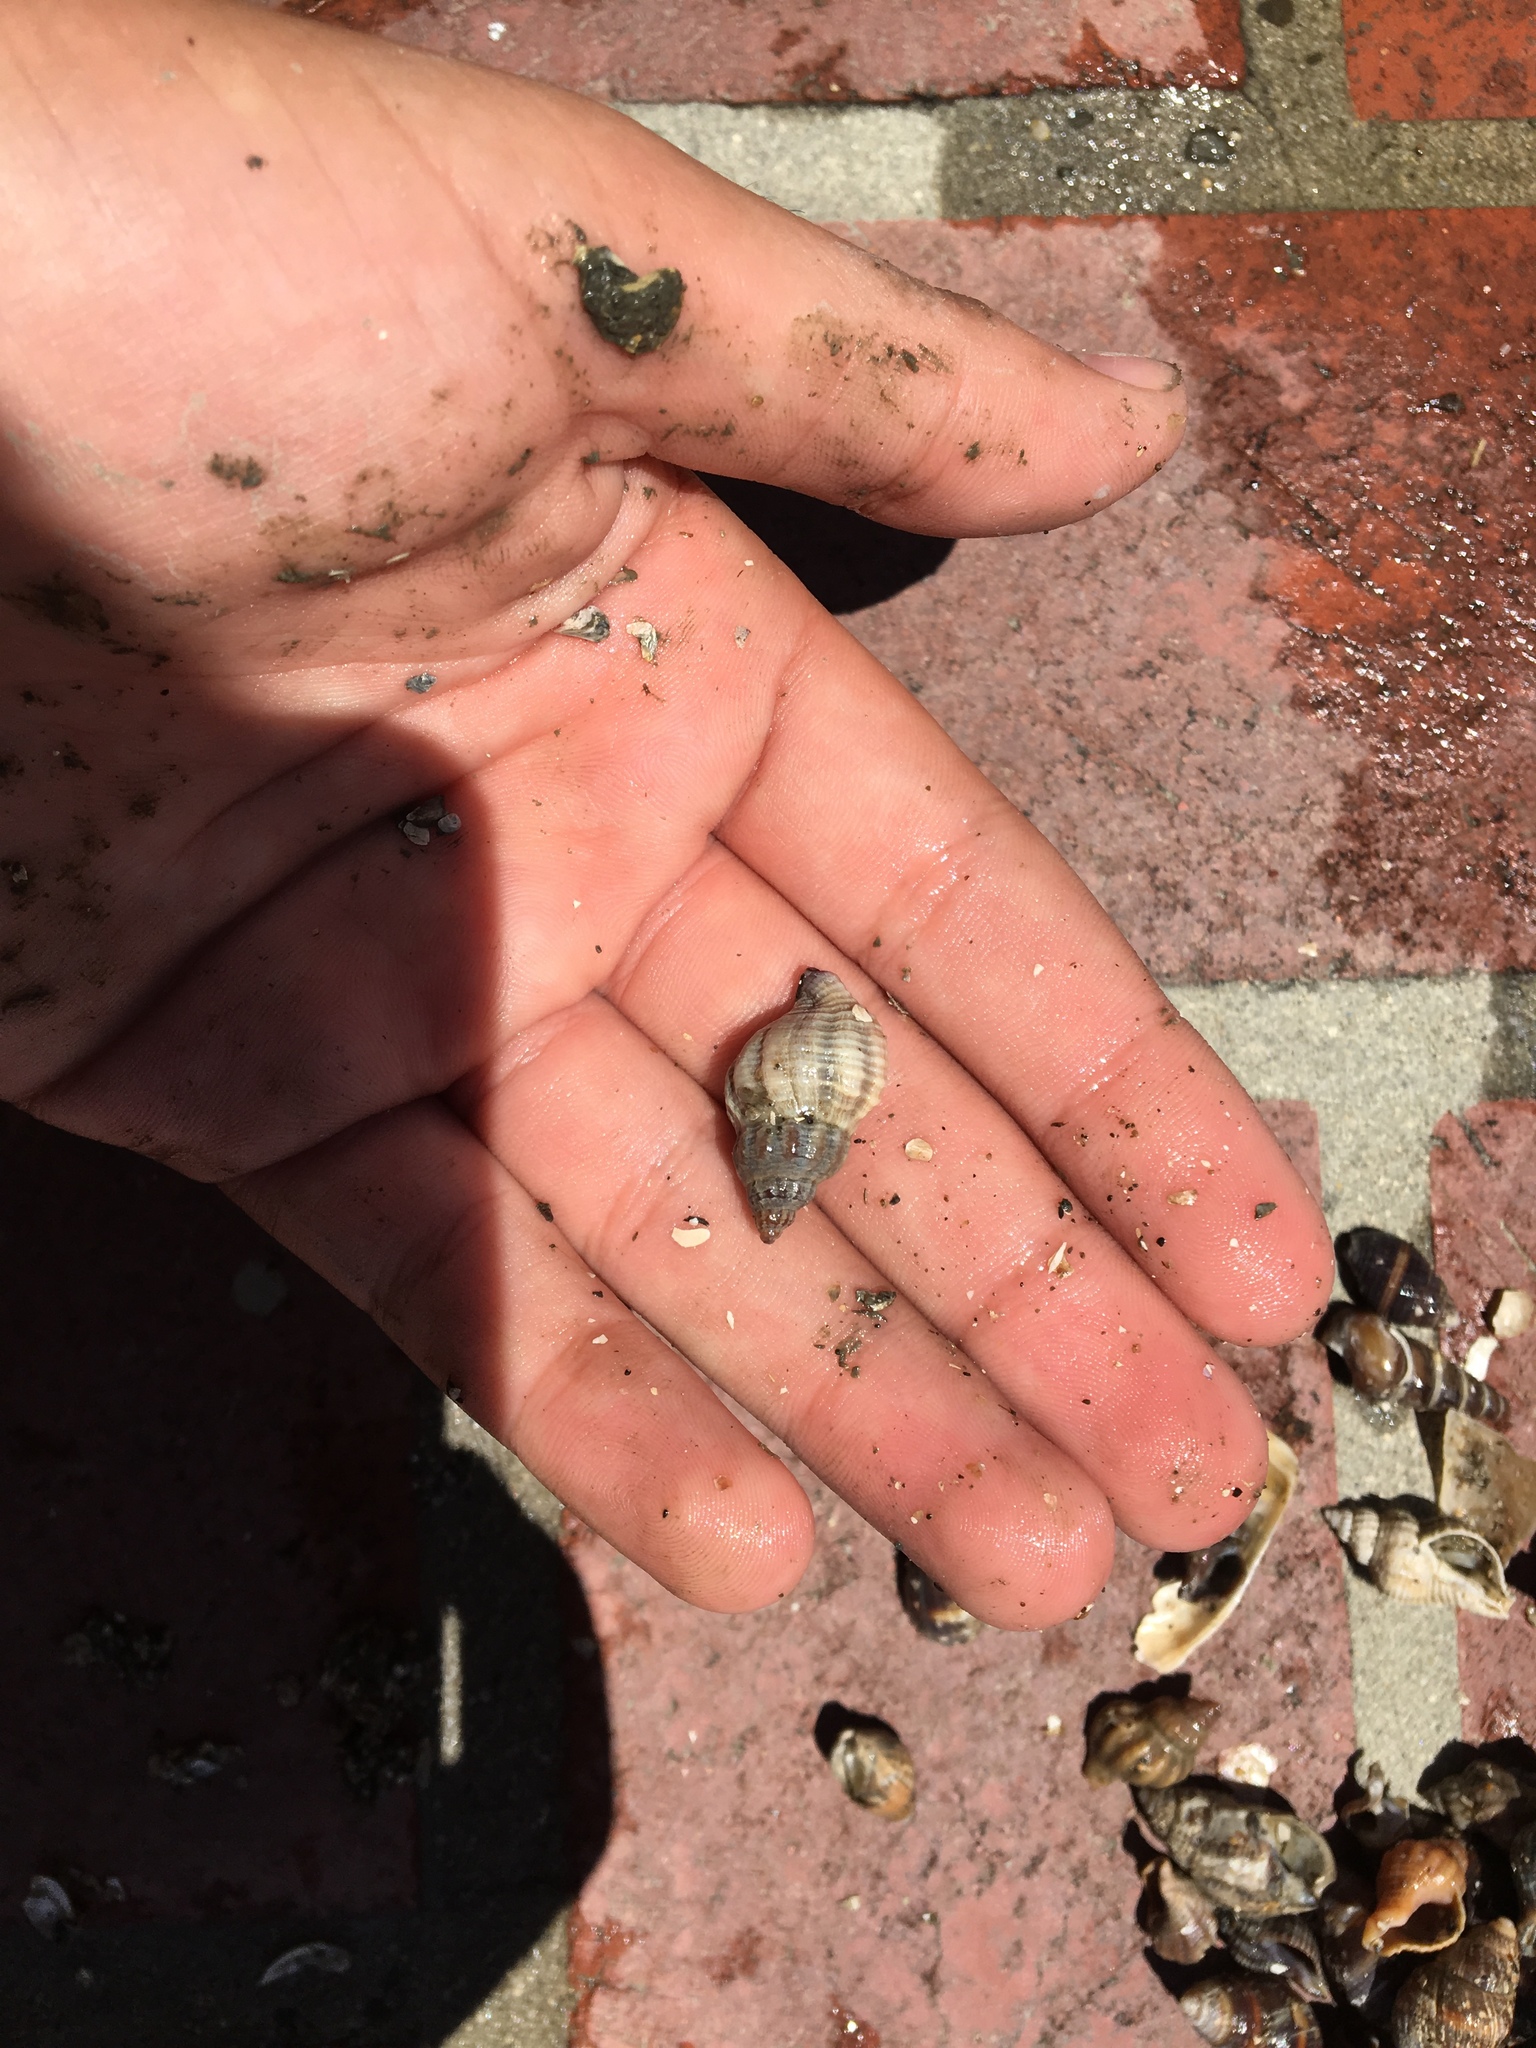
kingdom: Animalia
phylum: Mollusca
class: Gastropoda
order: Neogastropoda
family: Muricidae
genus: Urosalpinx
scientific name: Urosalpinx cinerea
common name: American sting winkle
